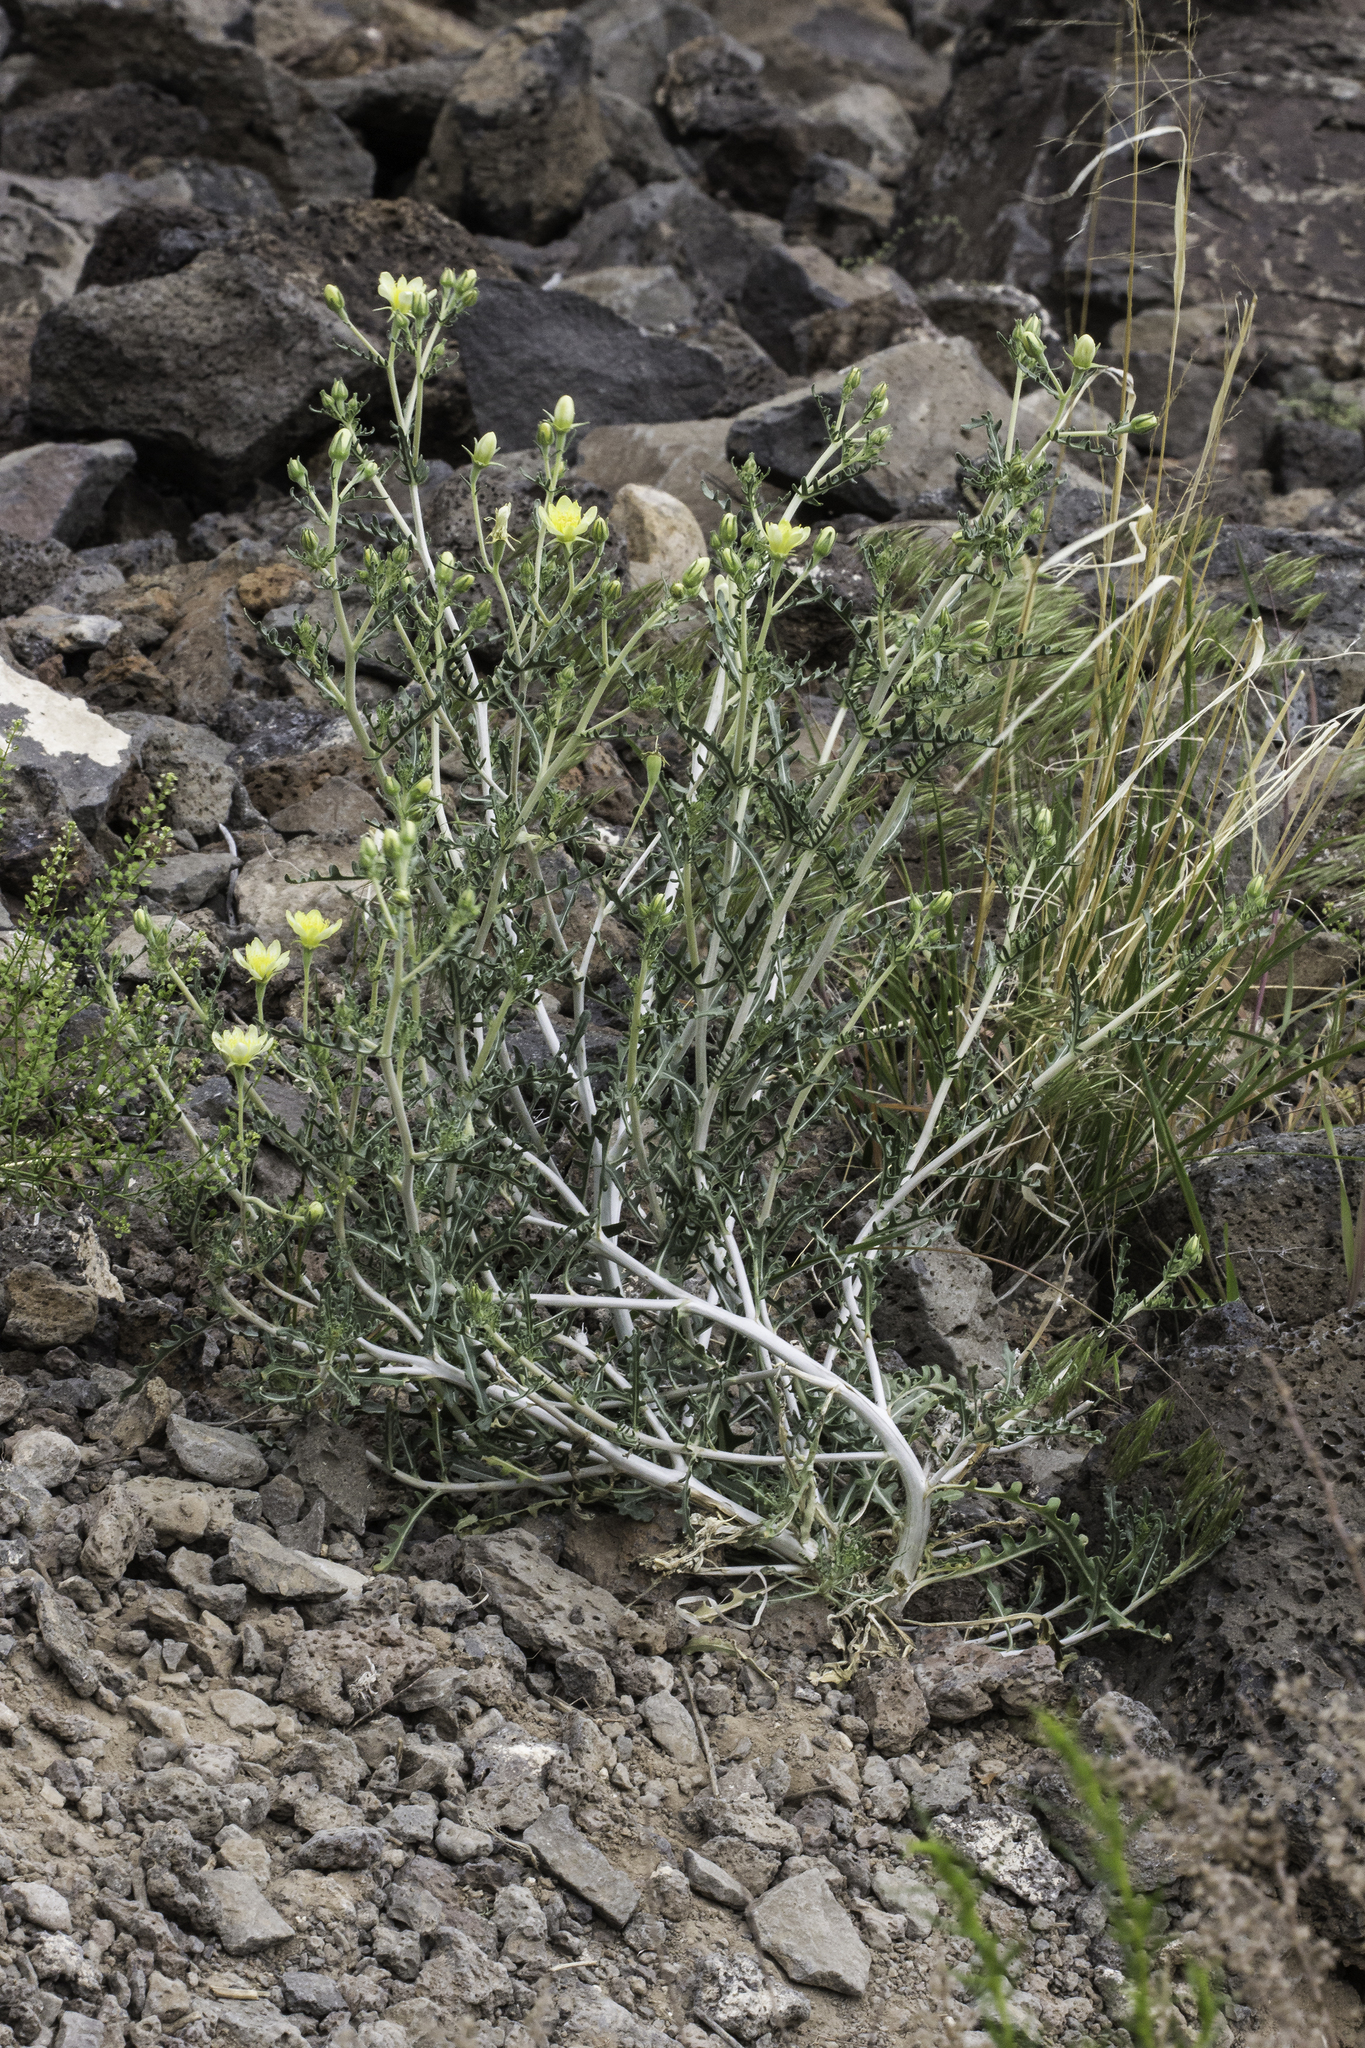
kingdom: Plantae
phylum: Tracheophyta
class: Magnoliopsida
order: Cornales
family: Loasaceae
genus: Mentzelia
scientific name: Mentzelia multiflora
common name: Adonis blazingstar
